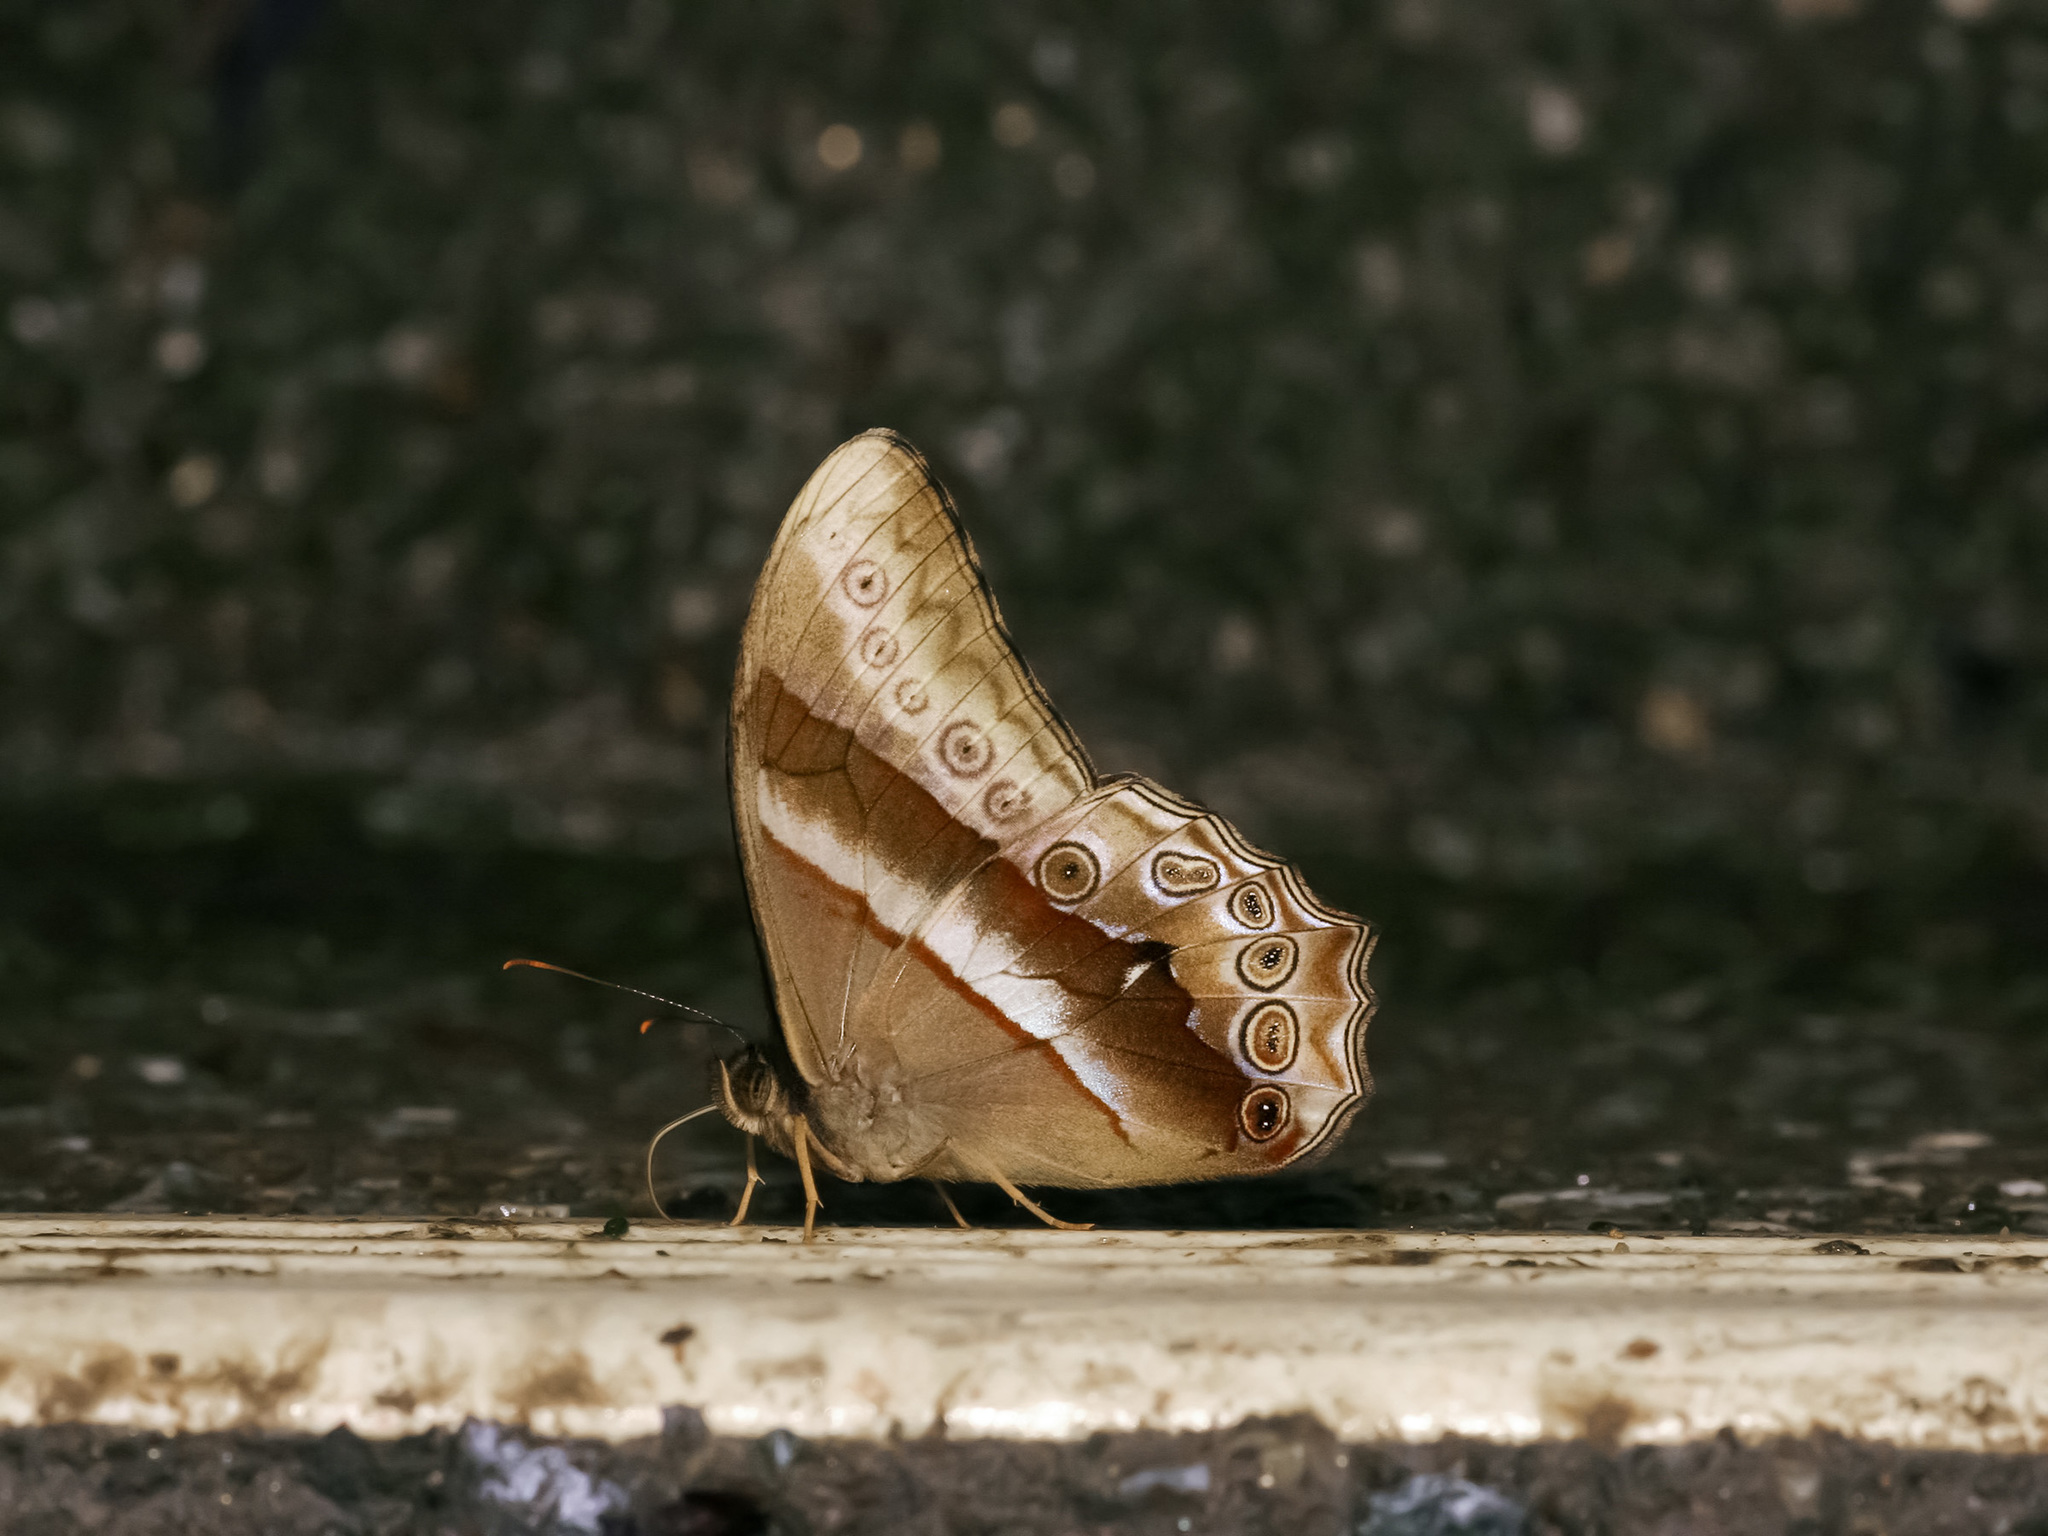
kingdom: Animalia
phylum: Arthropoda
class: Insecta
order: Lepidoptera
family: Nymphalidae
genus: Lethe
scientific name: Lethe mekara
